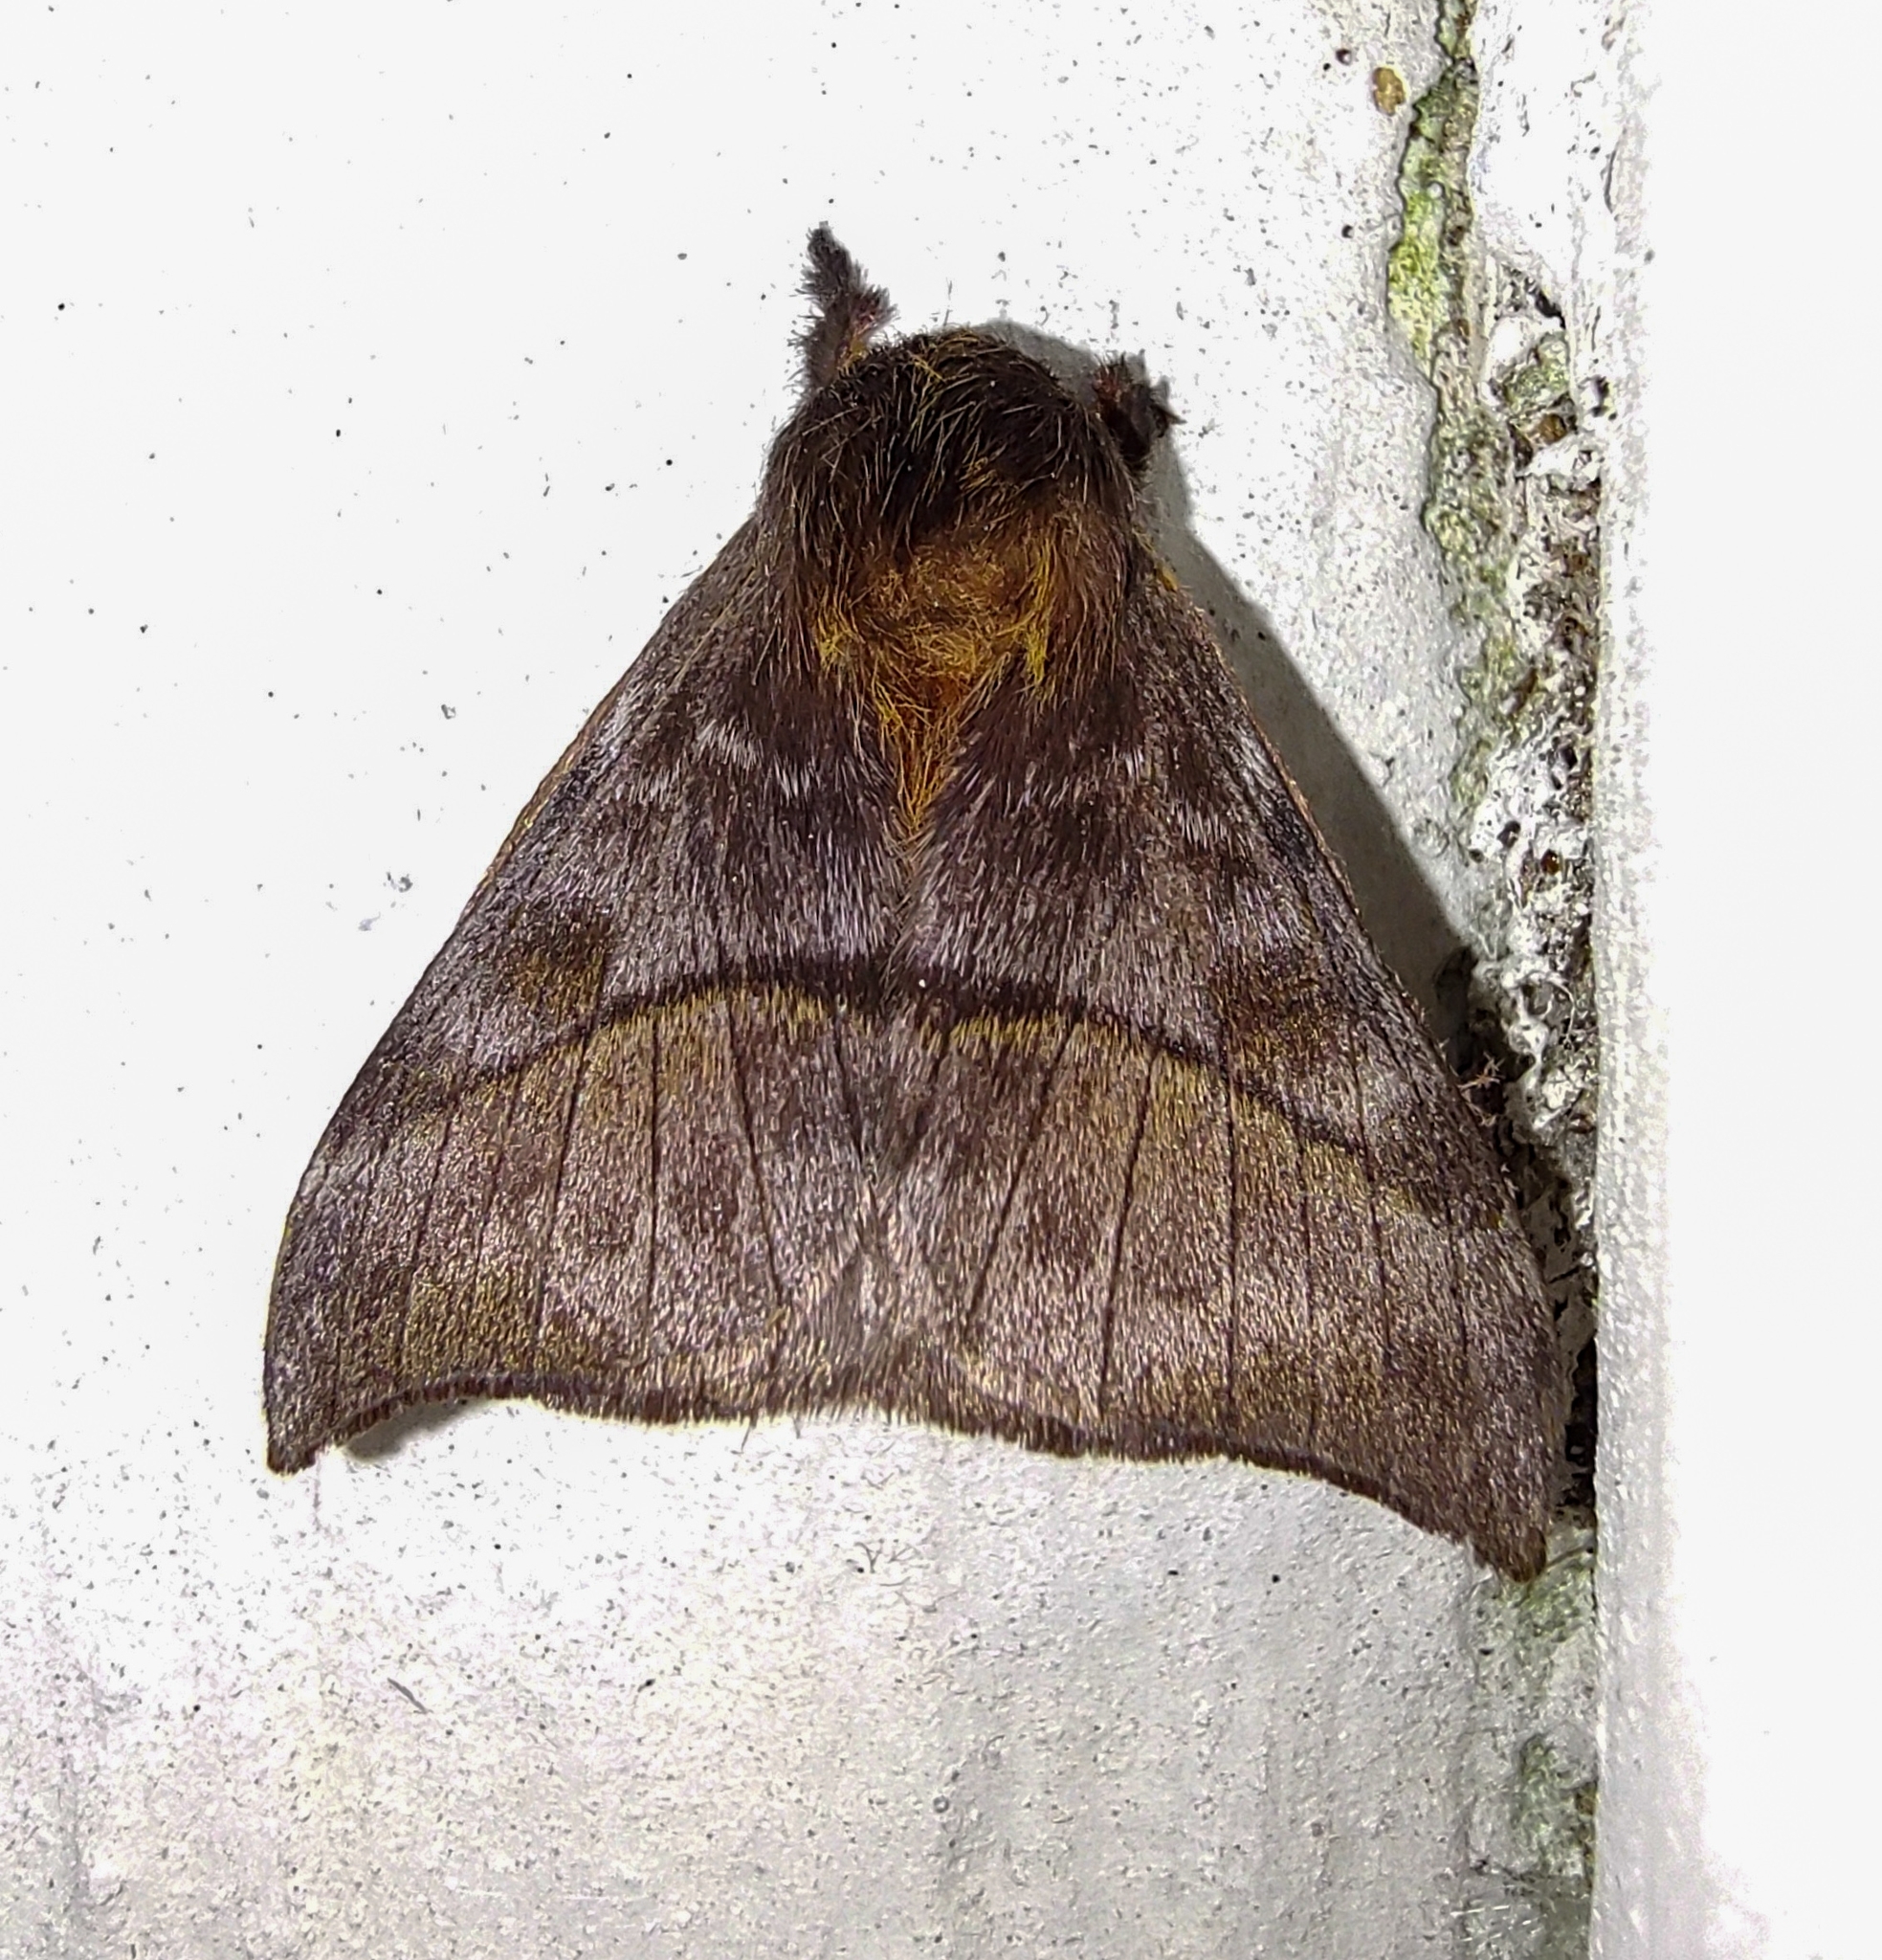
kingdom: Animalia
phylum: Arthropoda
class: Insecta
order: Lepidoptera
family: Saturniidae
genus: Hylesia
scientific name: Hylesia munonia
